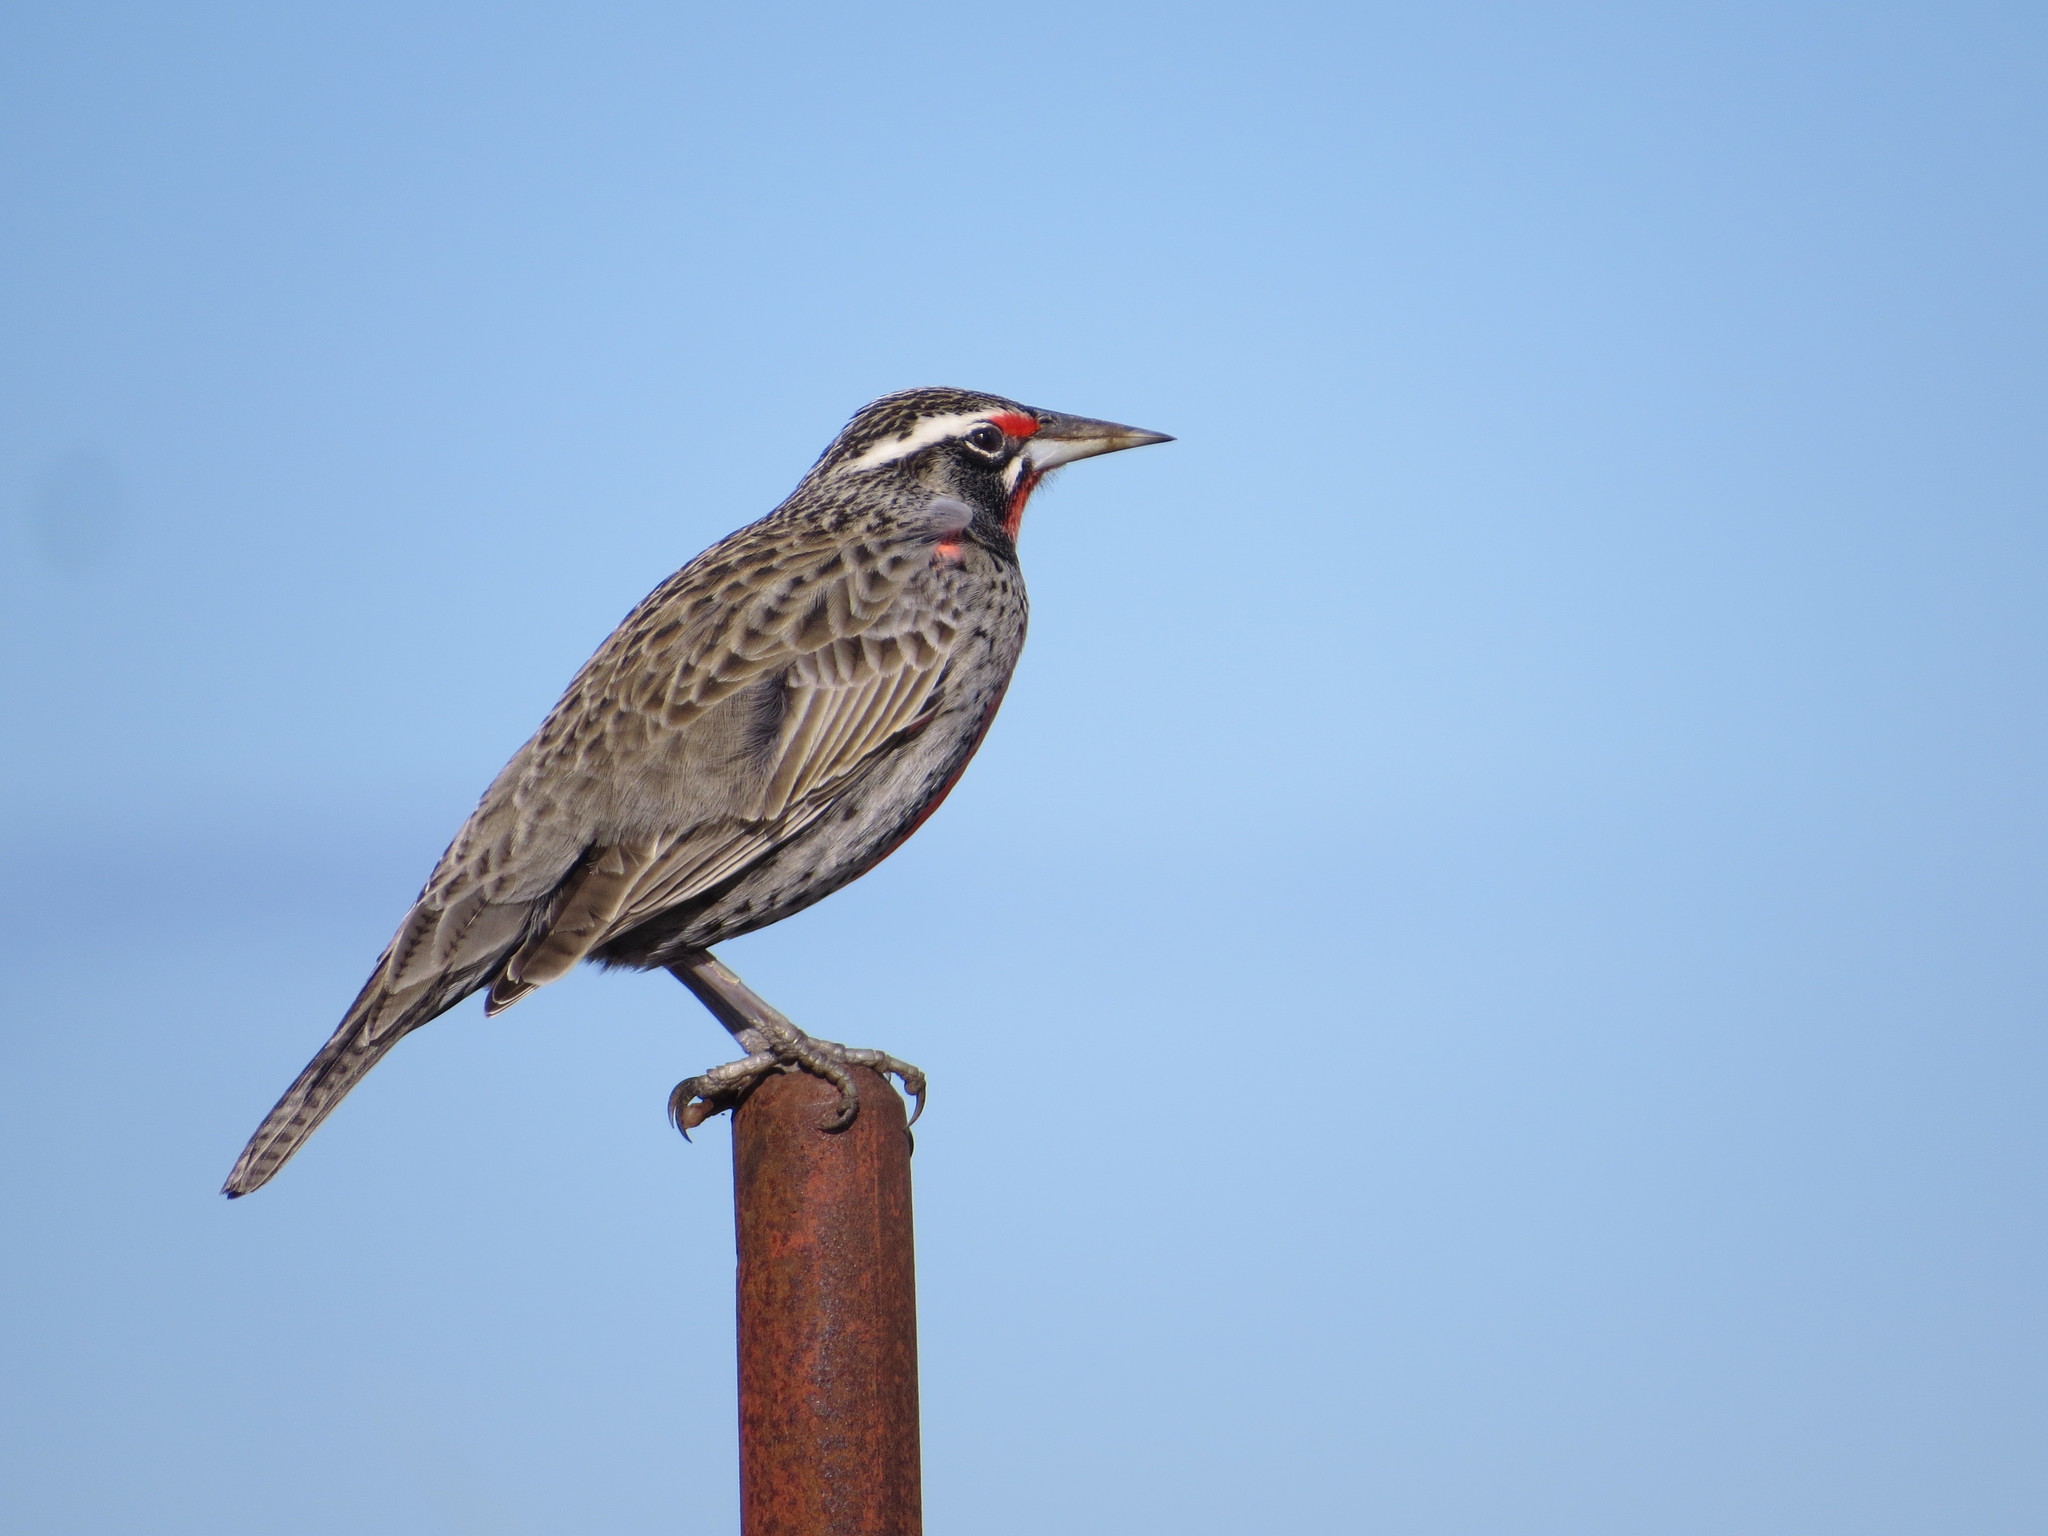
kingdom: Animalia
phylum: Chordata
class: Aves
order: Passeriformes
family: Icteridae
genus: Sturnella
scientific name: Sturnella loyca
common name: Long-tailed meadowlark
